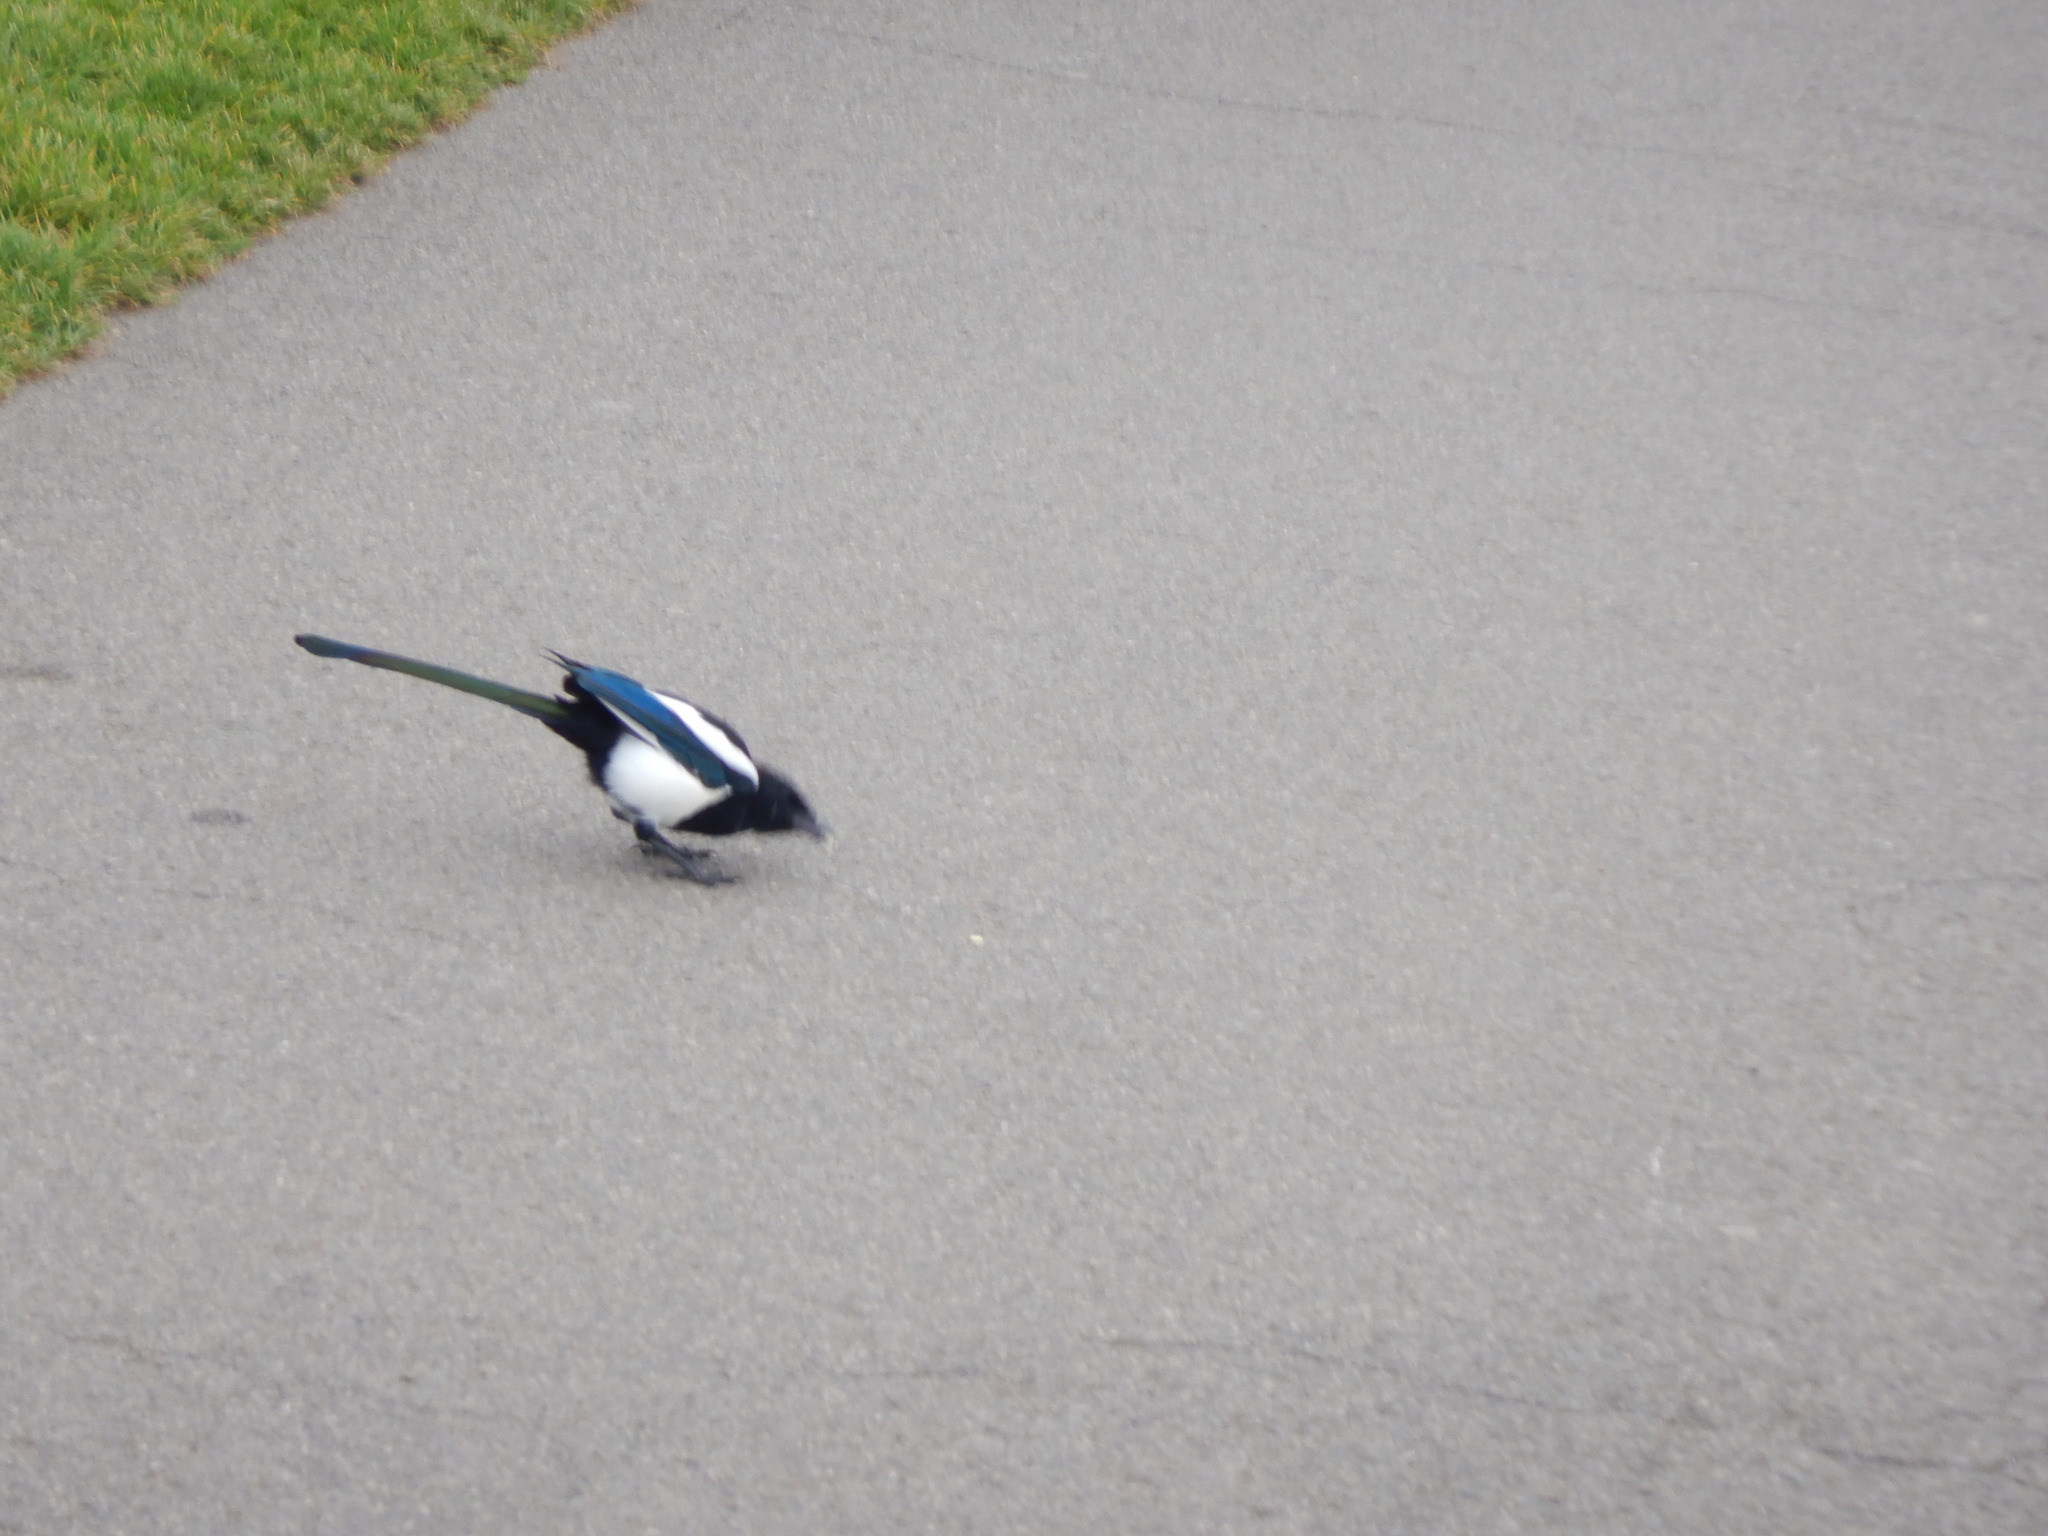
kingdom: Animalia
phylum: Chordata
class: Aves
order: Passeriformes
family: Corvidae
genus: Pica
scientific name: Pica pica
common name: Eurasian magpie
